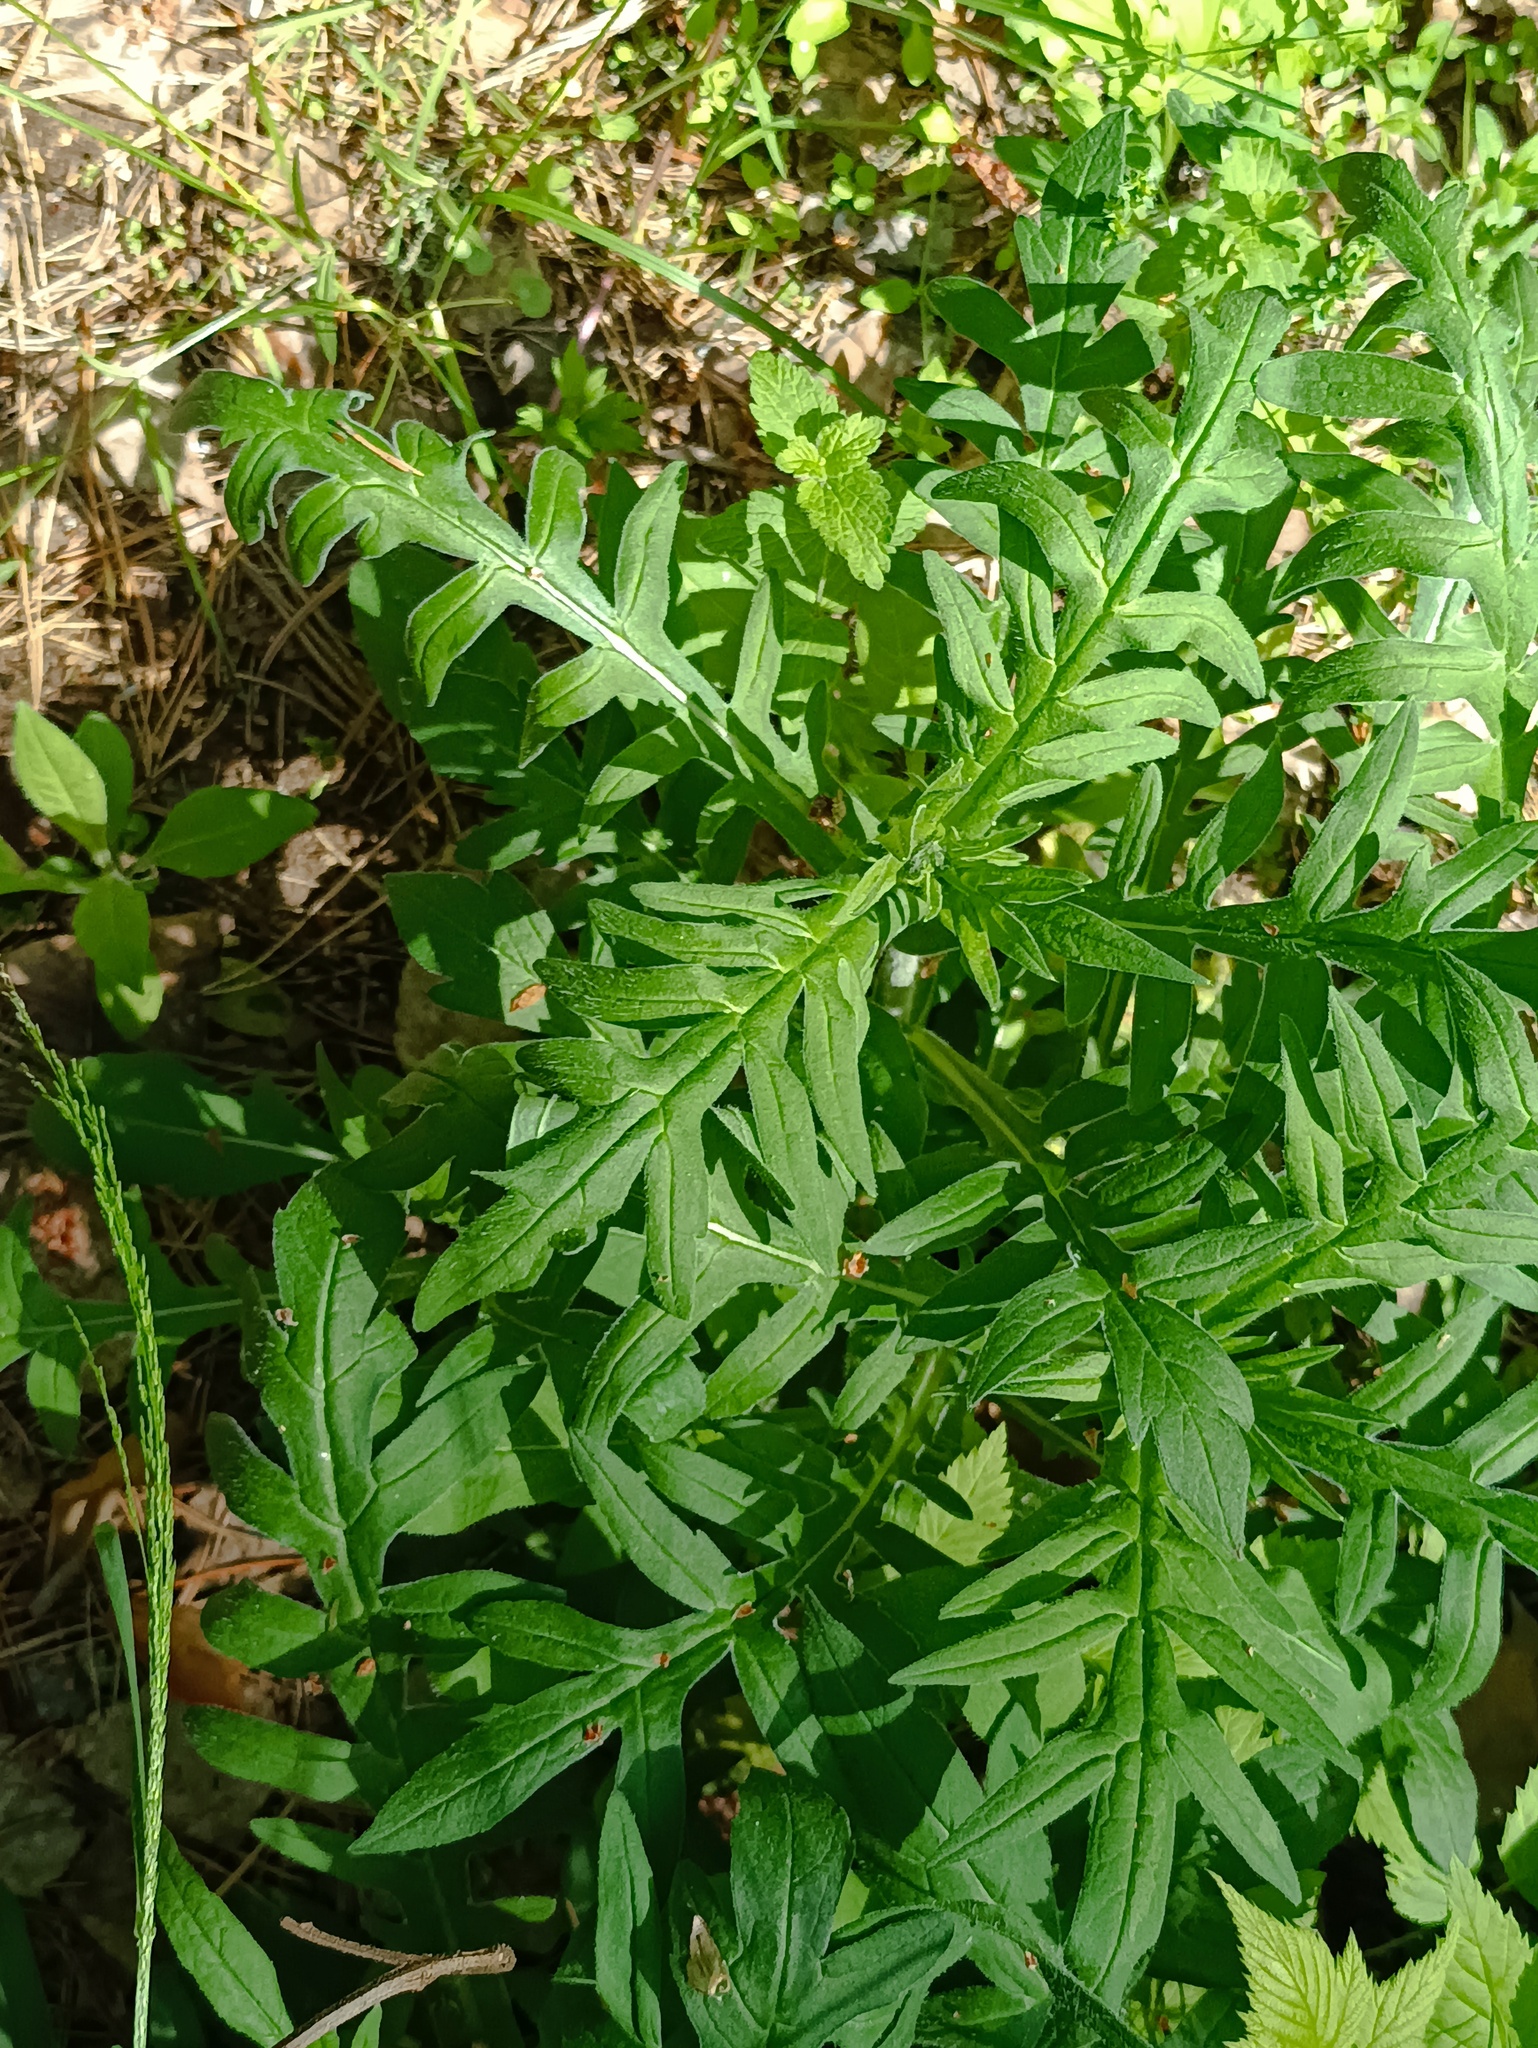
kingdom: Plantae
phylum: Tracheophyta
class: Magnoliopsida
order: Dipsacales
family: Caprifoliaceae
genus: Knautia
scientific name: Knautia arvensis
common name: Field scabiosa
